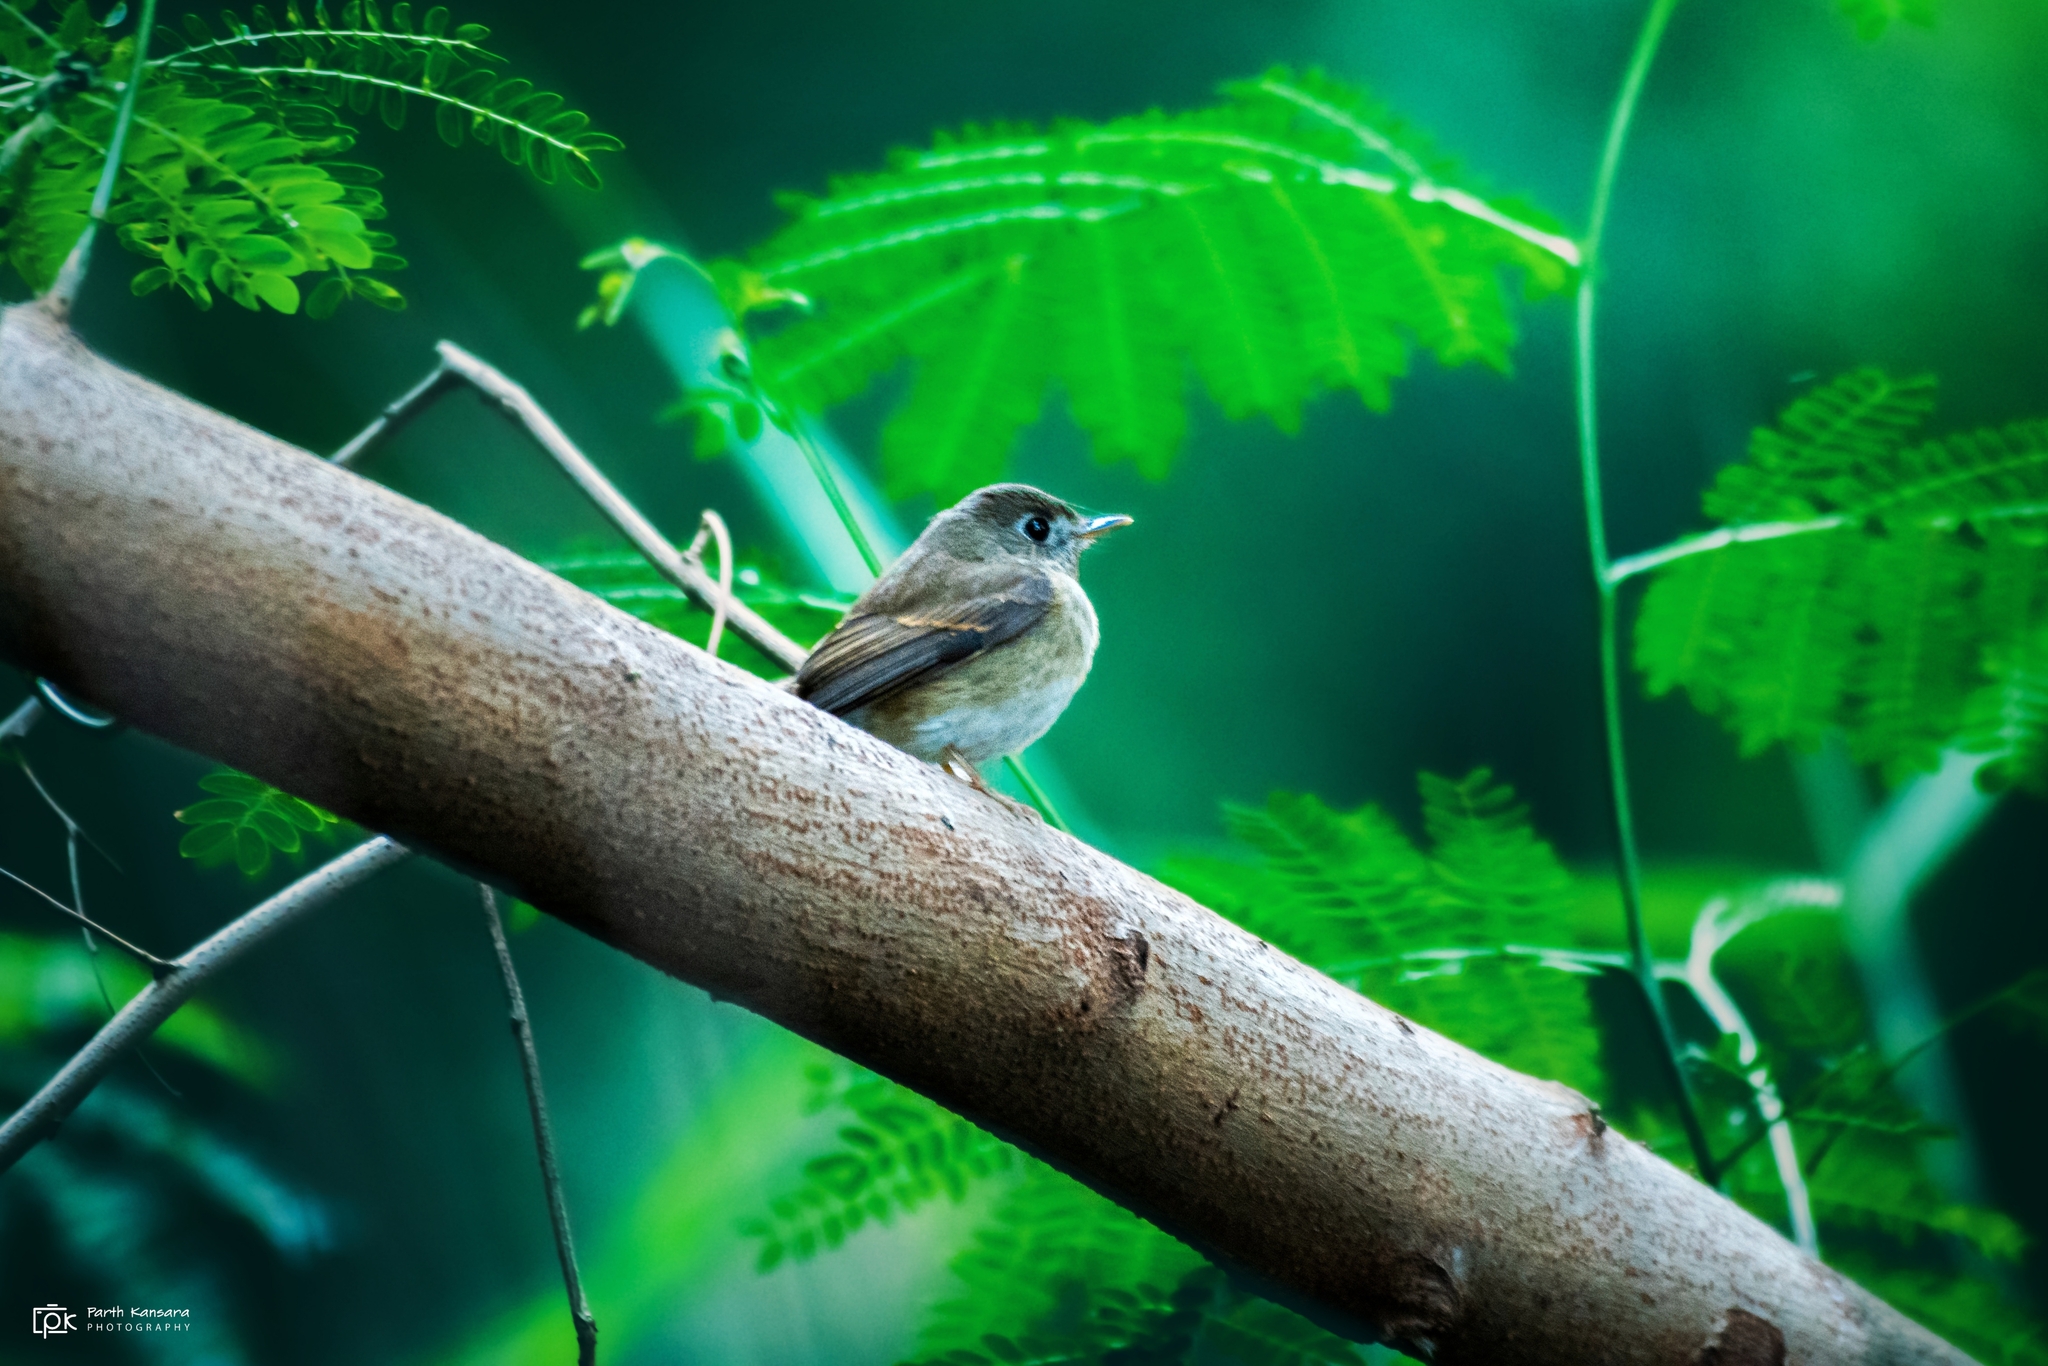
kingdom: Animalia
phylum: Chordata
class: Aves
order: Passeriformes
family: Muscicapidae
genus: Muscicapa
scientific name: Muscicapa muttui
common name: Brown-breasted flycatcher
